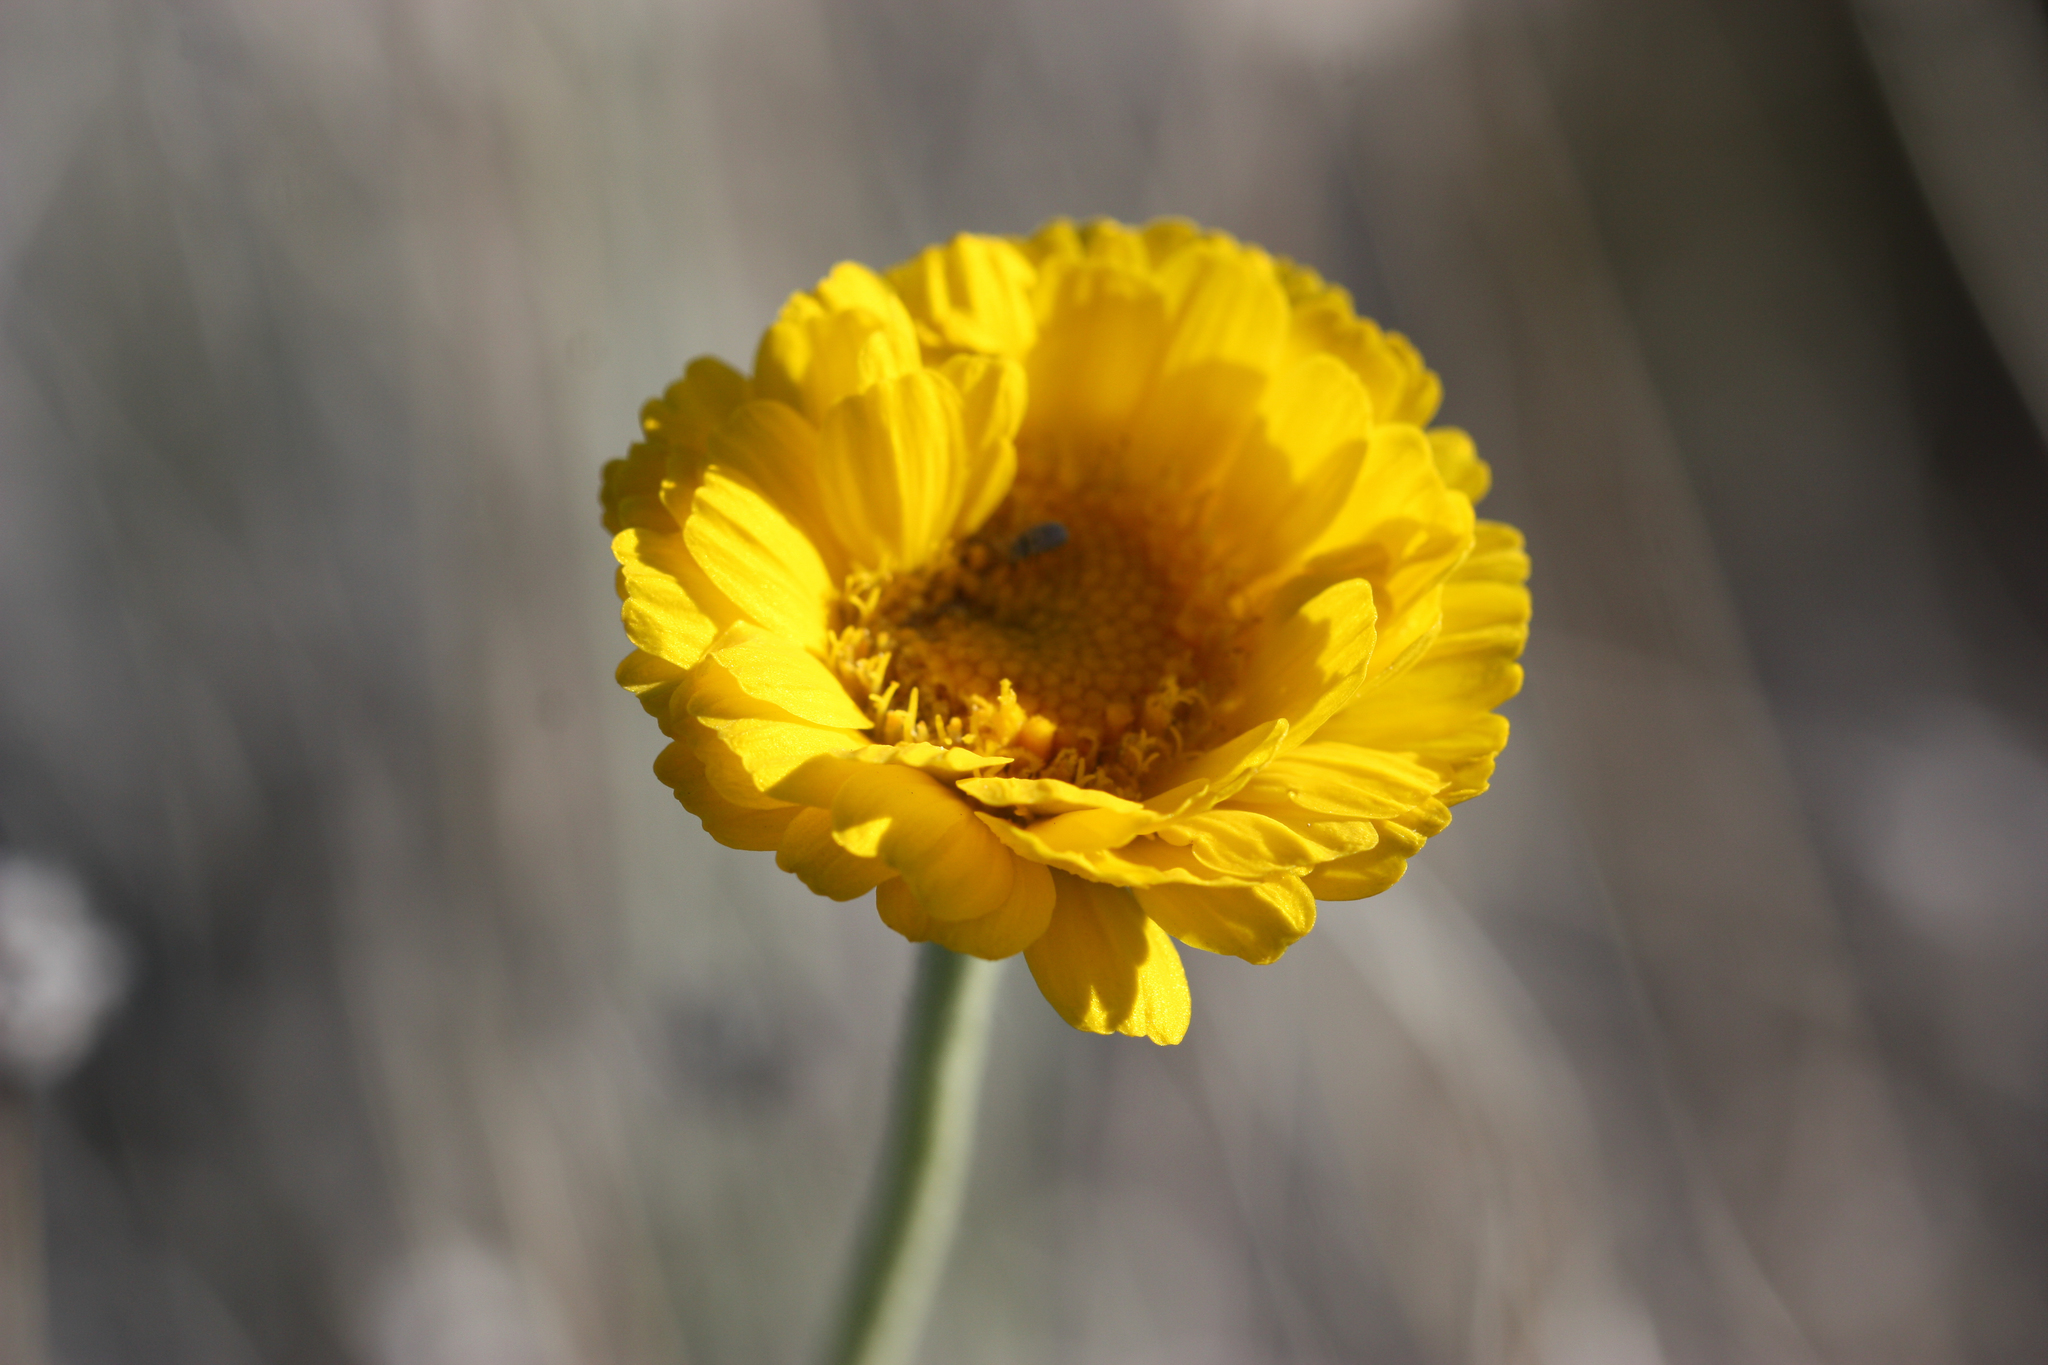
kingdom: Plantae
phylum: Tracheophyta
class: Magnoliopsida
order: Asterales
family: Asteraceae
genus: Baileya
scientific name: Baileya multiradiata
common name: Desert-marigold
